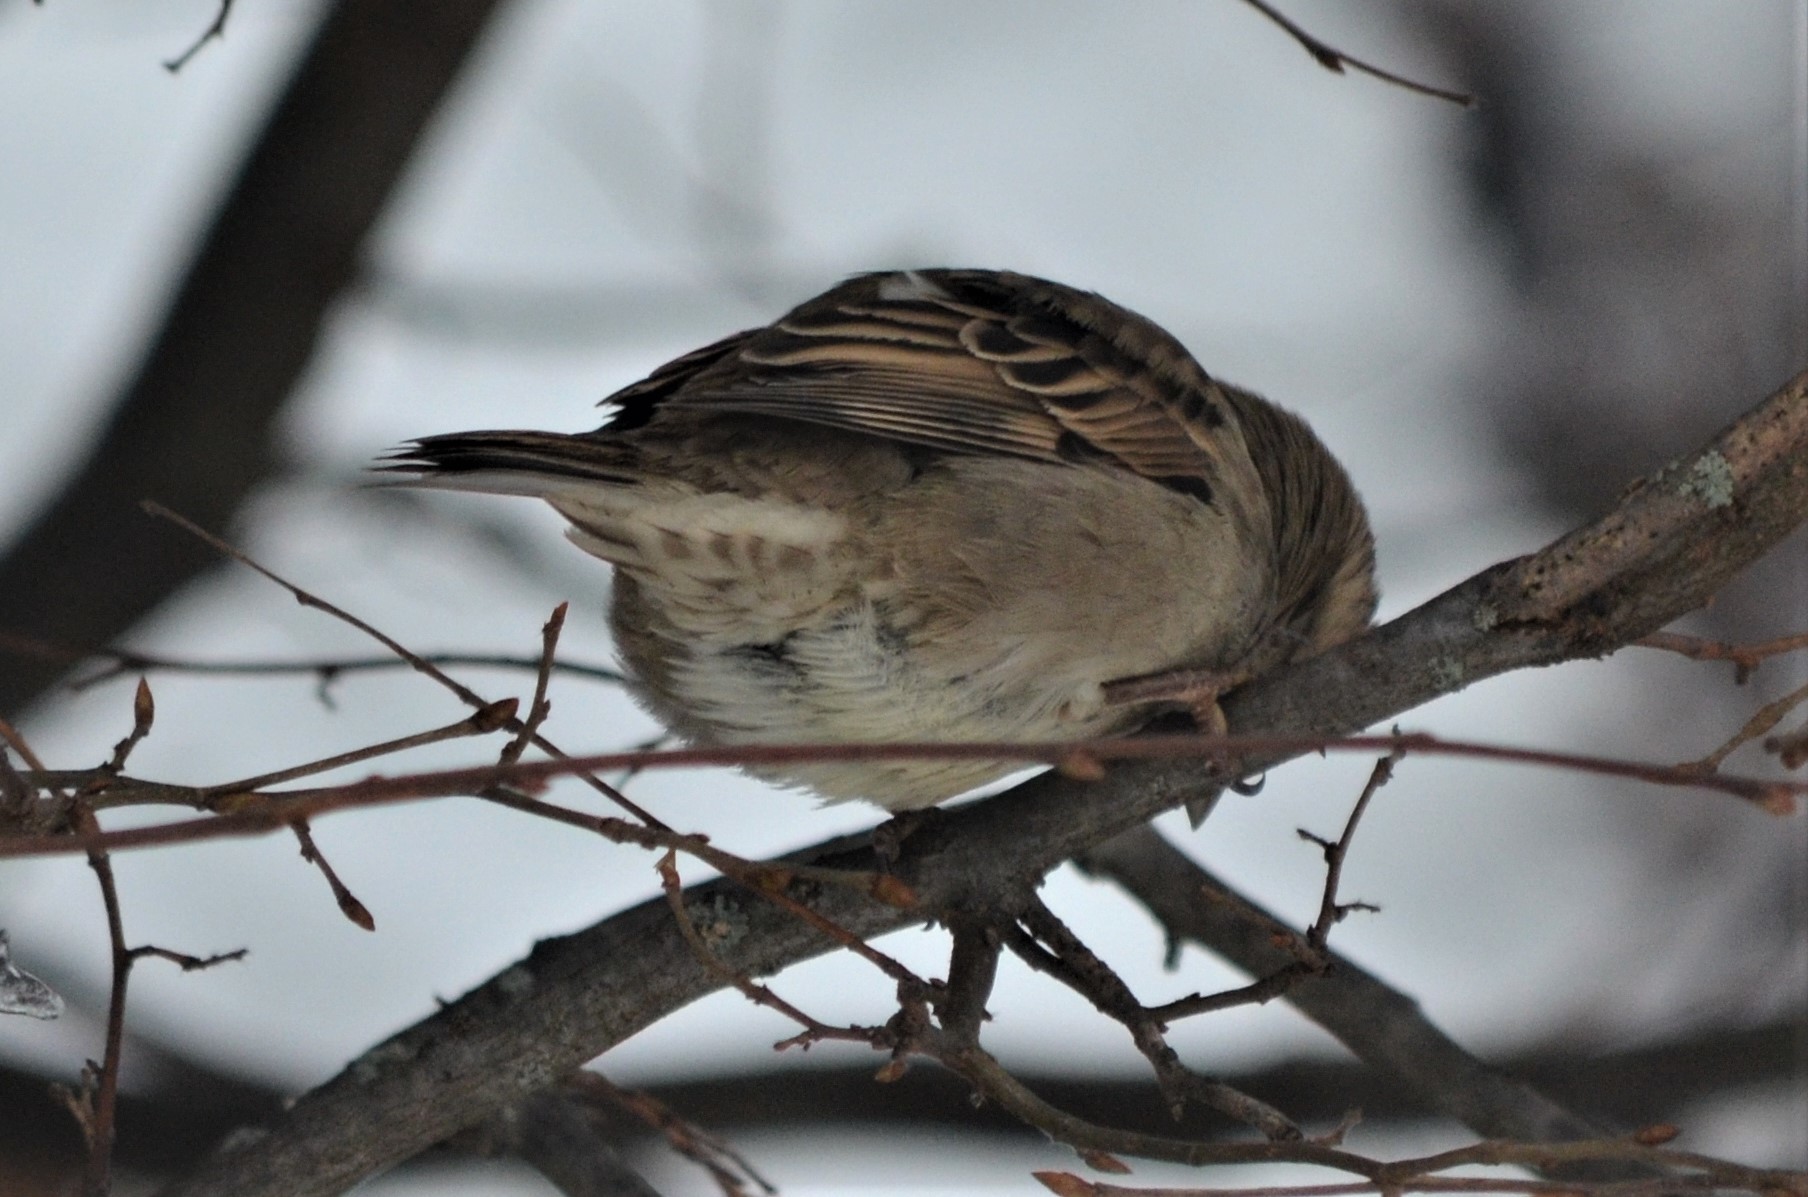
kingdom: Animalia
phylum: Chordata
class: Aves
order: Passeriformes
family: Passeridae
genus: Passer
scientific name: Passer domesticus
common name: House sparrow
